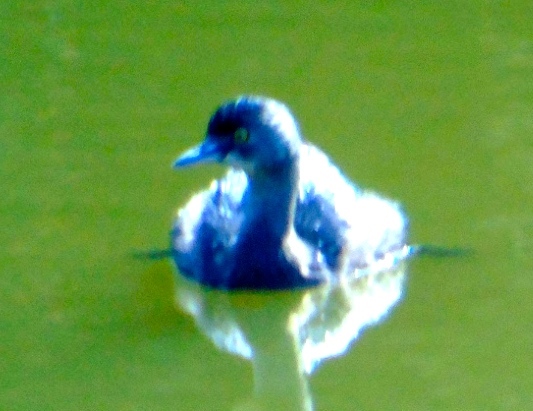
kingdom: Animalia
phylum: Chordata
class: Aves
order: Podicipediformes
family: Podicipedidae
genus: Tachybaptus
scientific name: Tachybaptus dominicus
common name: Least grebe
